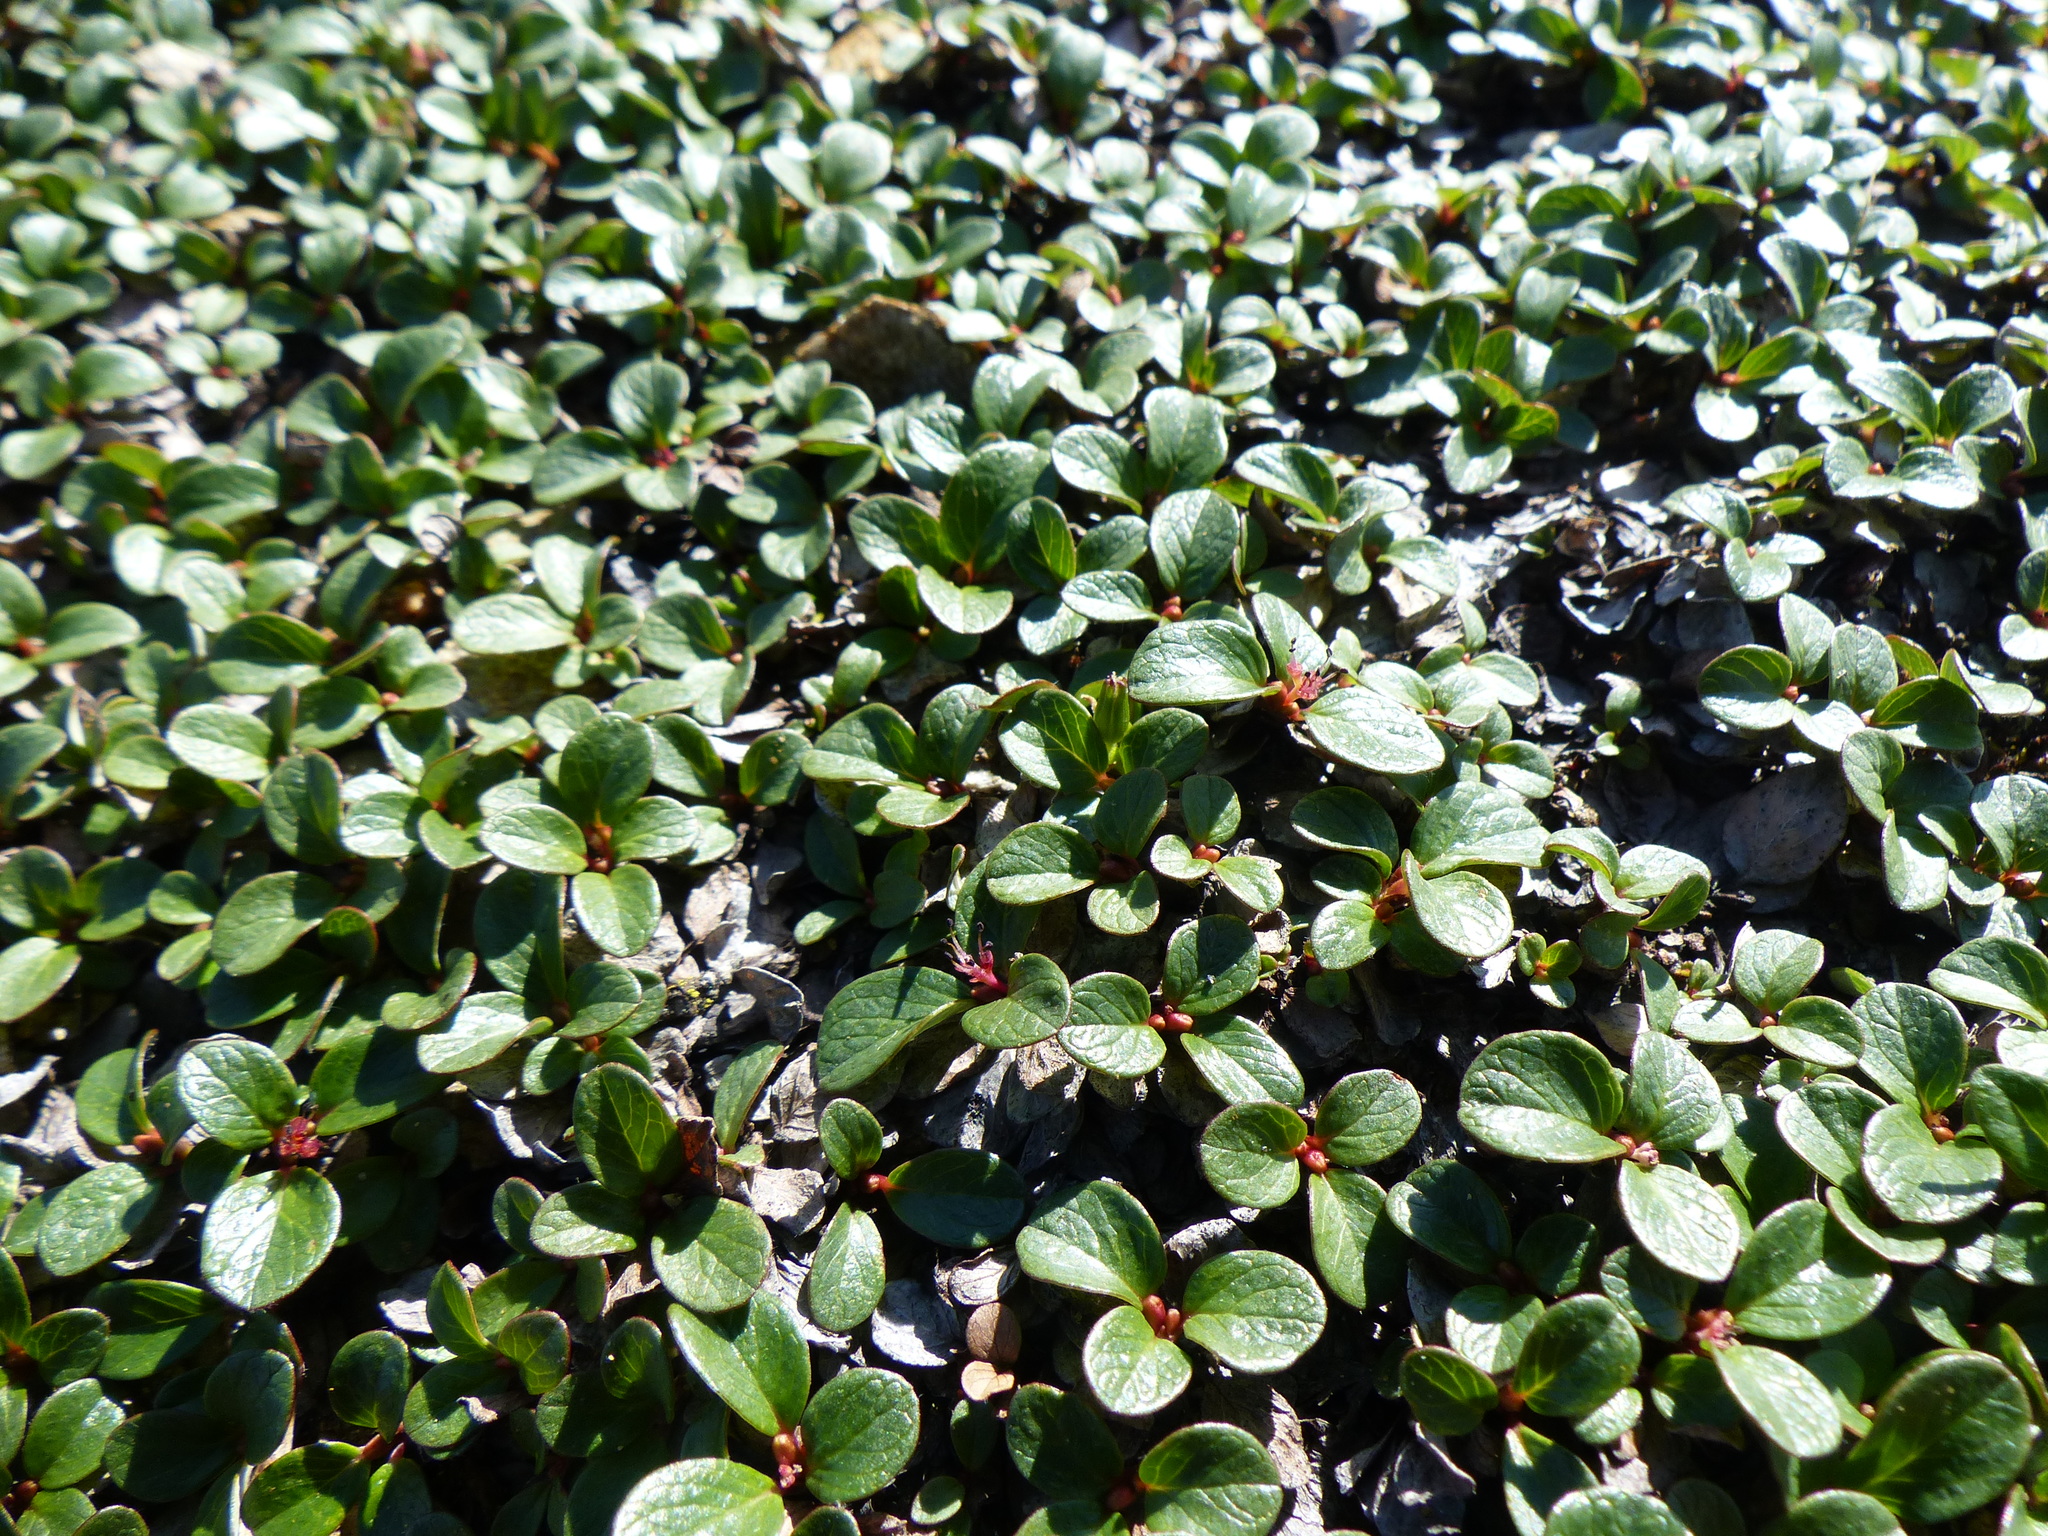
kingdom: Plantae
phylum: Tracheophyta
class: Magnoliopsida
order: Malpighiales
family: Salicaceae
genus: Salix
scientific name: Salix nivalis
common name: Dwarf snow willow
